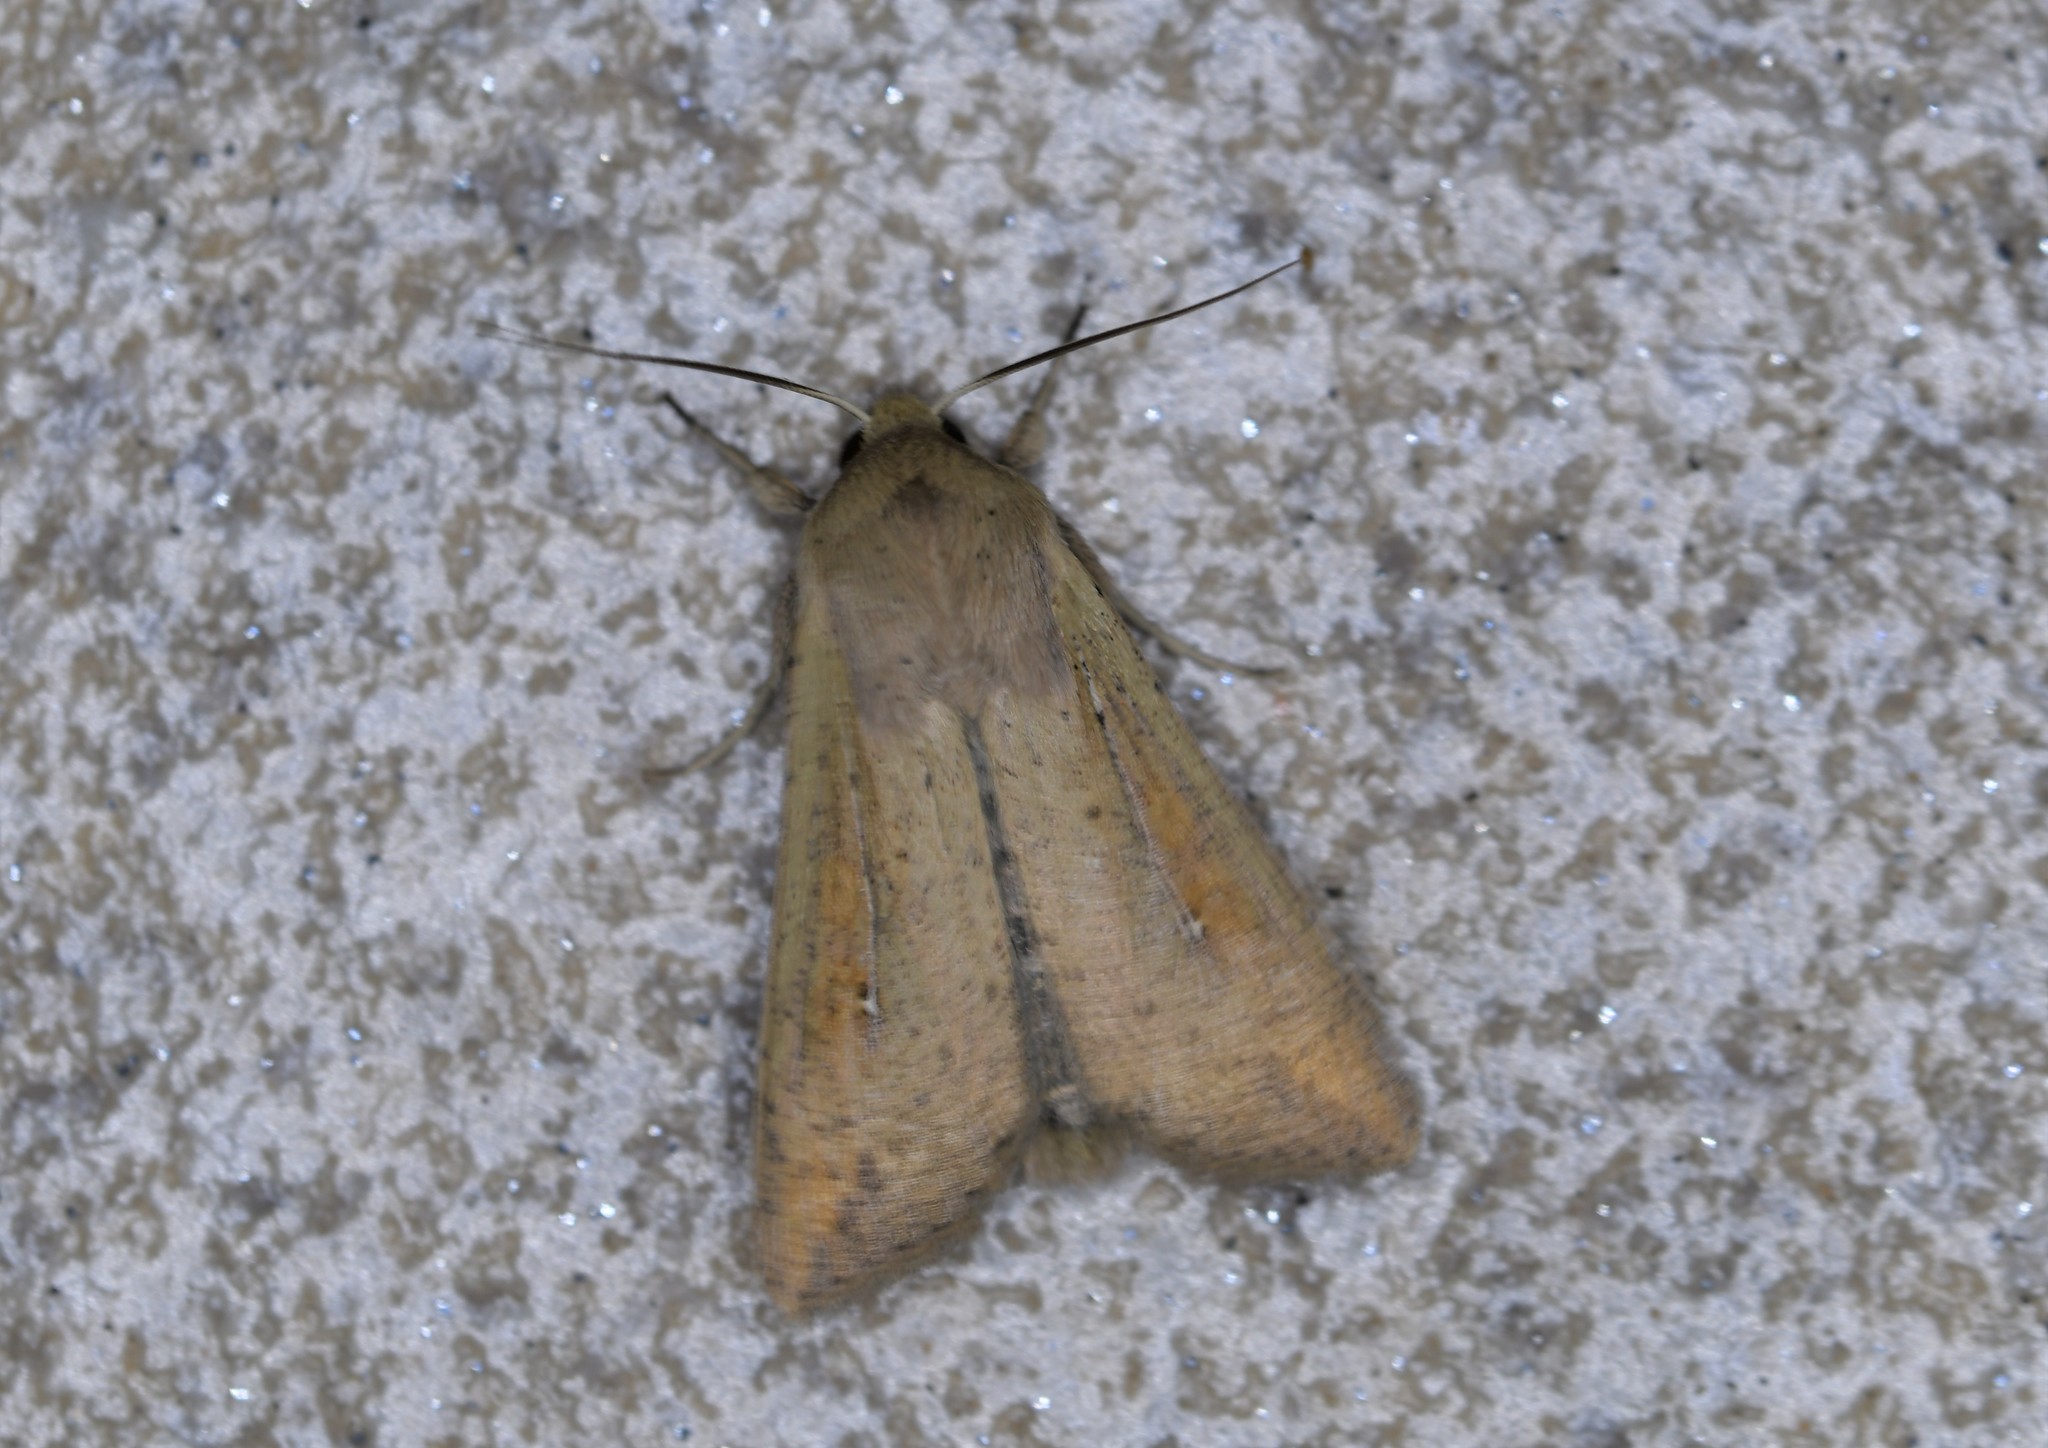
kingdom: Animalia
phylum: Arthropoda
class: Insecta
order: Lepidoptera
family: Noctuidae
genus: Mythimna
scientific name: Mythimna unipuncta
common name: White-speck
